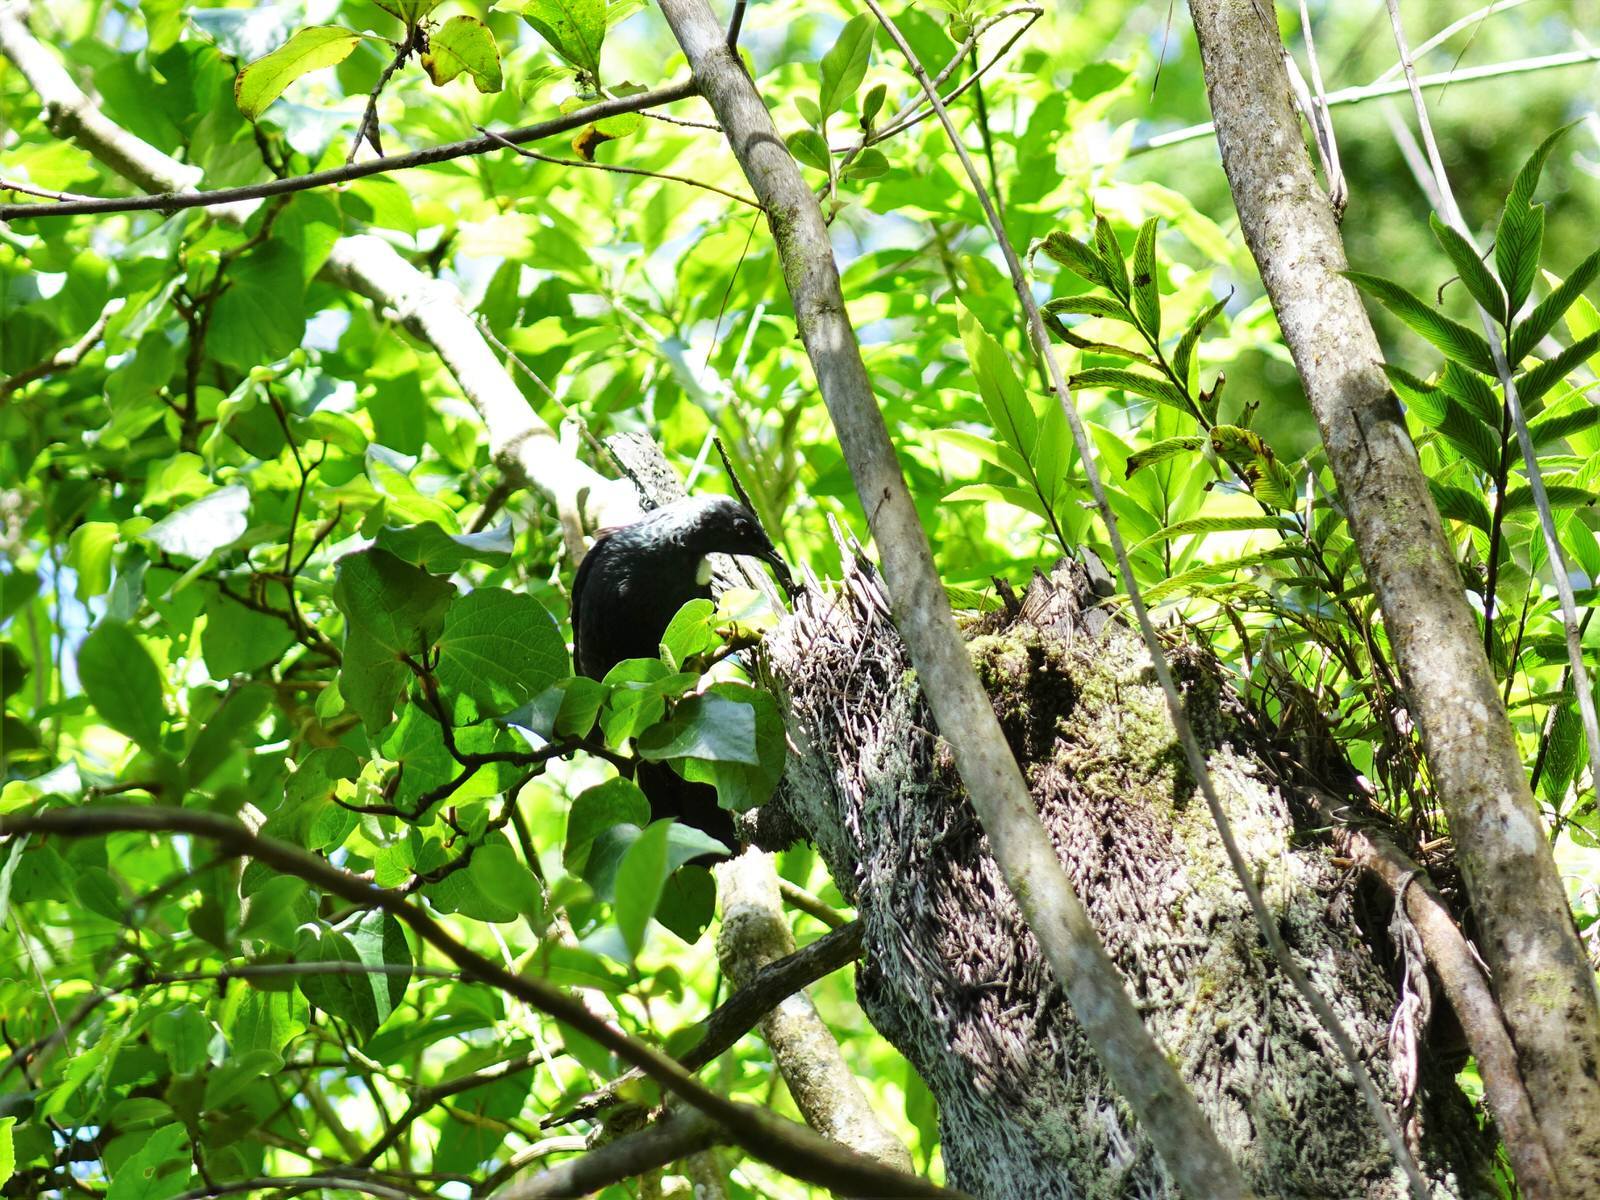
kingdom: Animalia
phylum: Chordata
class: Aves
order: Passeriformes
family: Meliphagidae
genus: Prosthemadera
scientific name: Prosthemadera novaeseelandiae
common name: Tui
